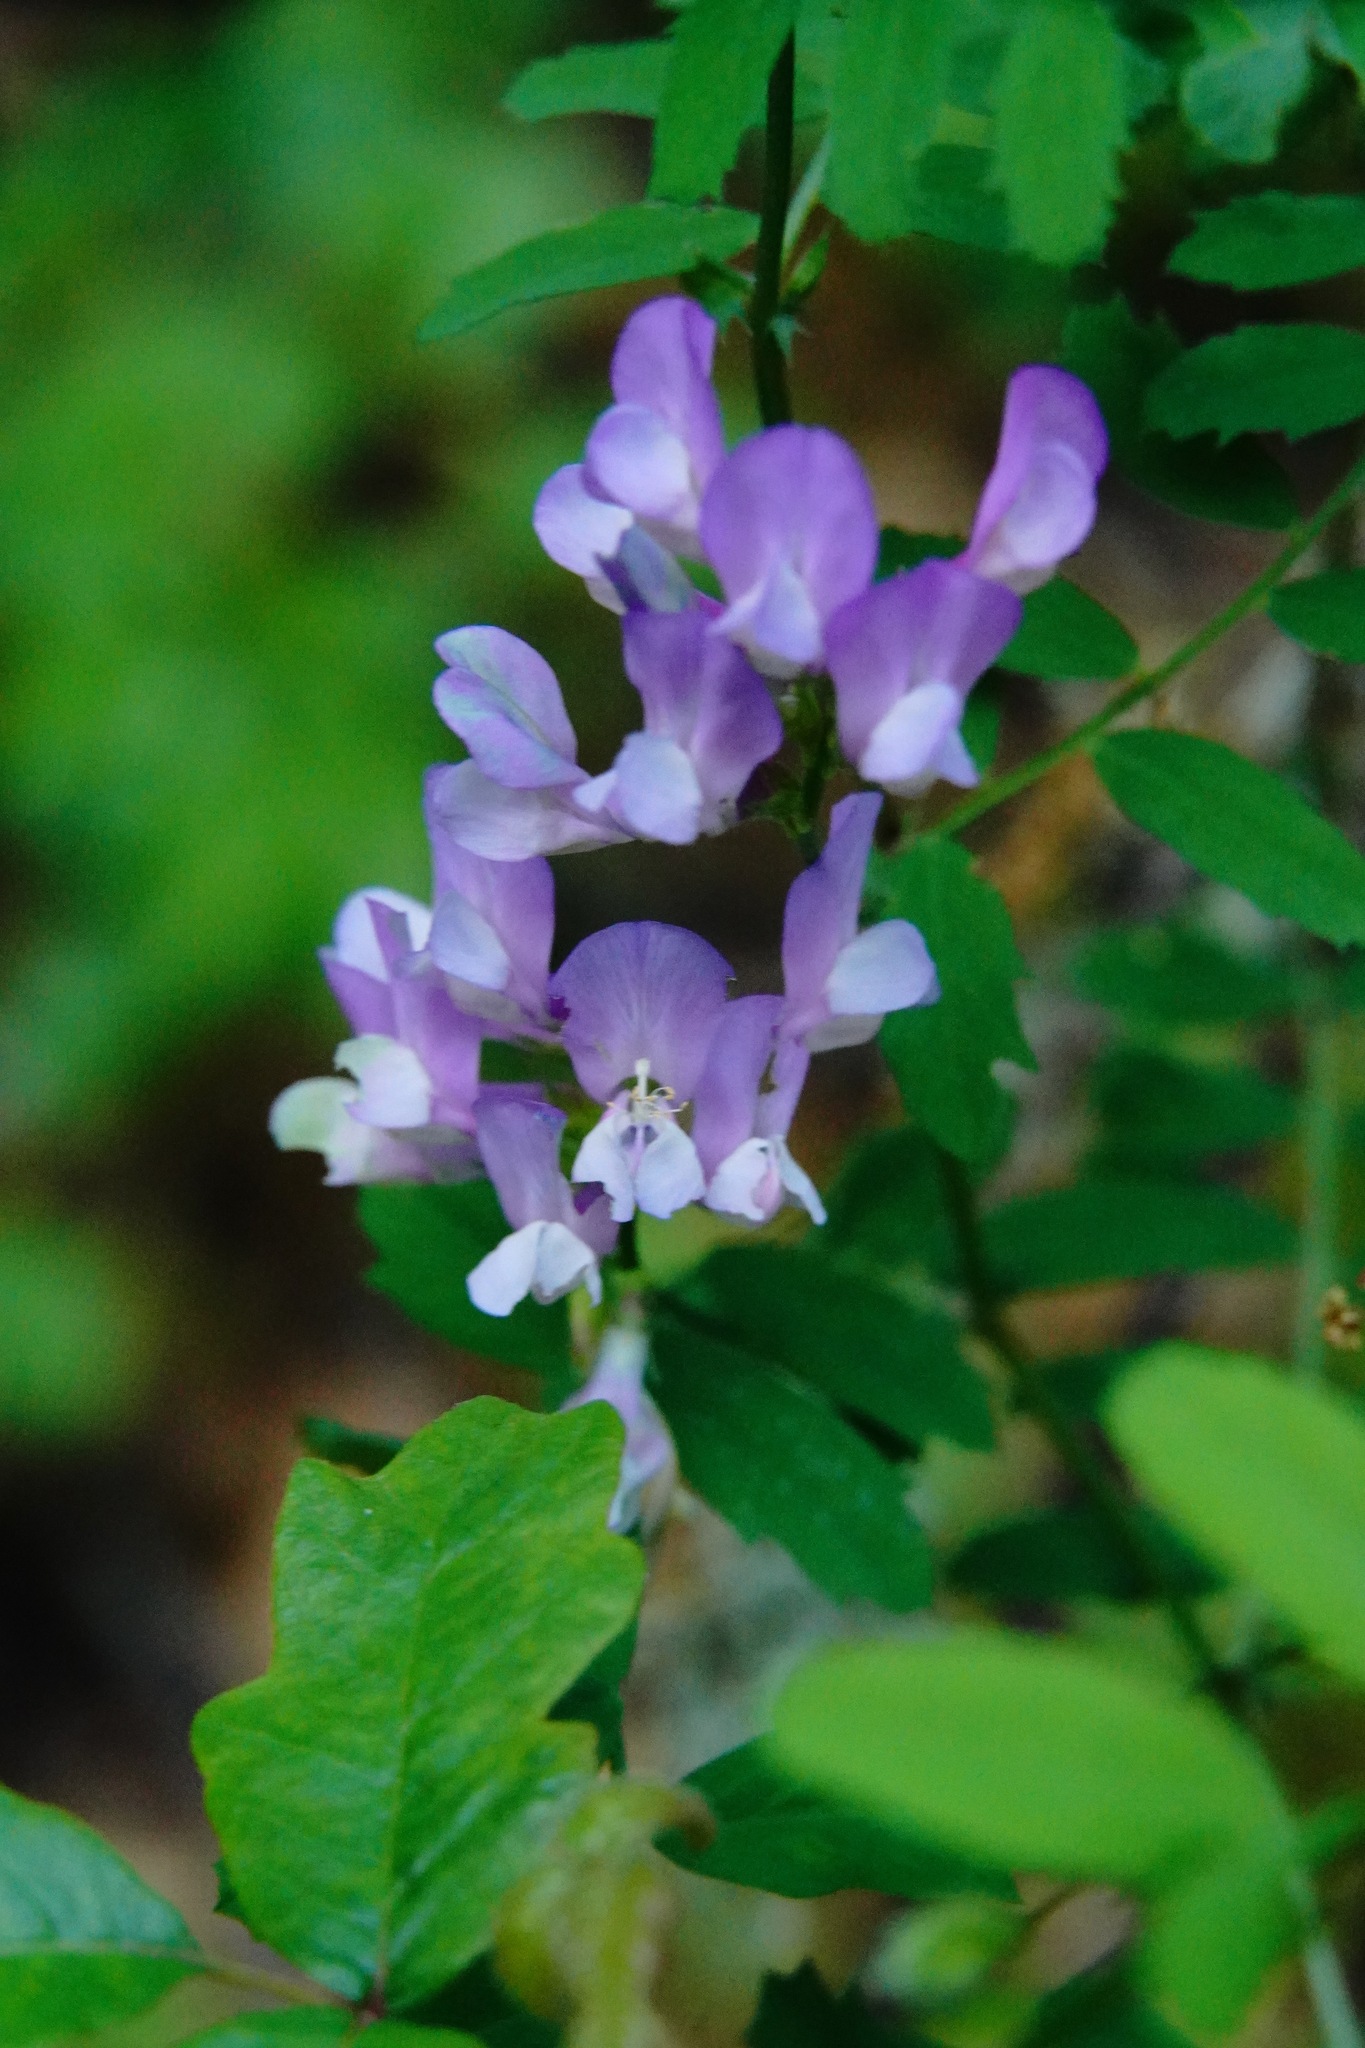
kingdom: Plantae
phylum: Tracheophyta
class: Magnoliopsida
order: Fabales
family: Fabaceae
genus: Vicia
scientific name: Vicia americana
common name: American vetch
